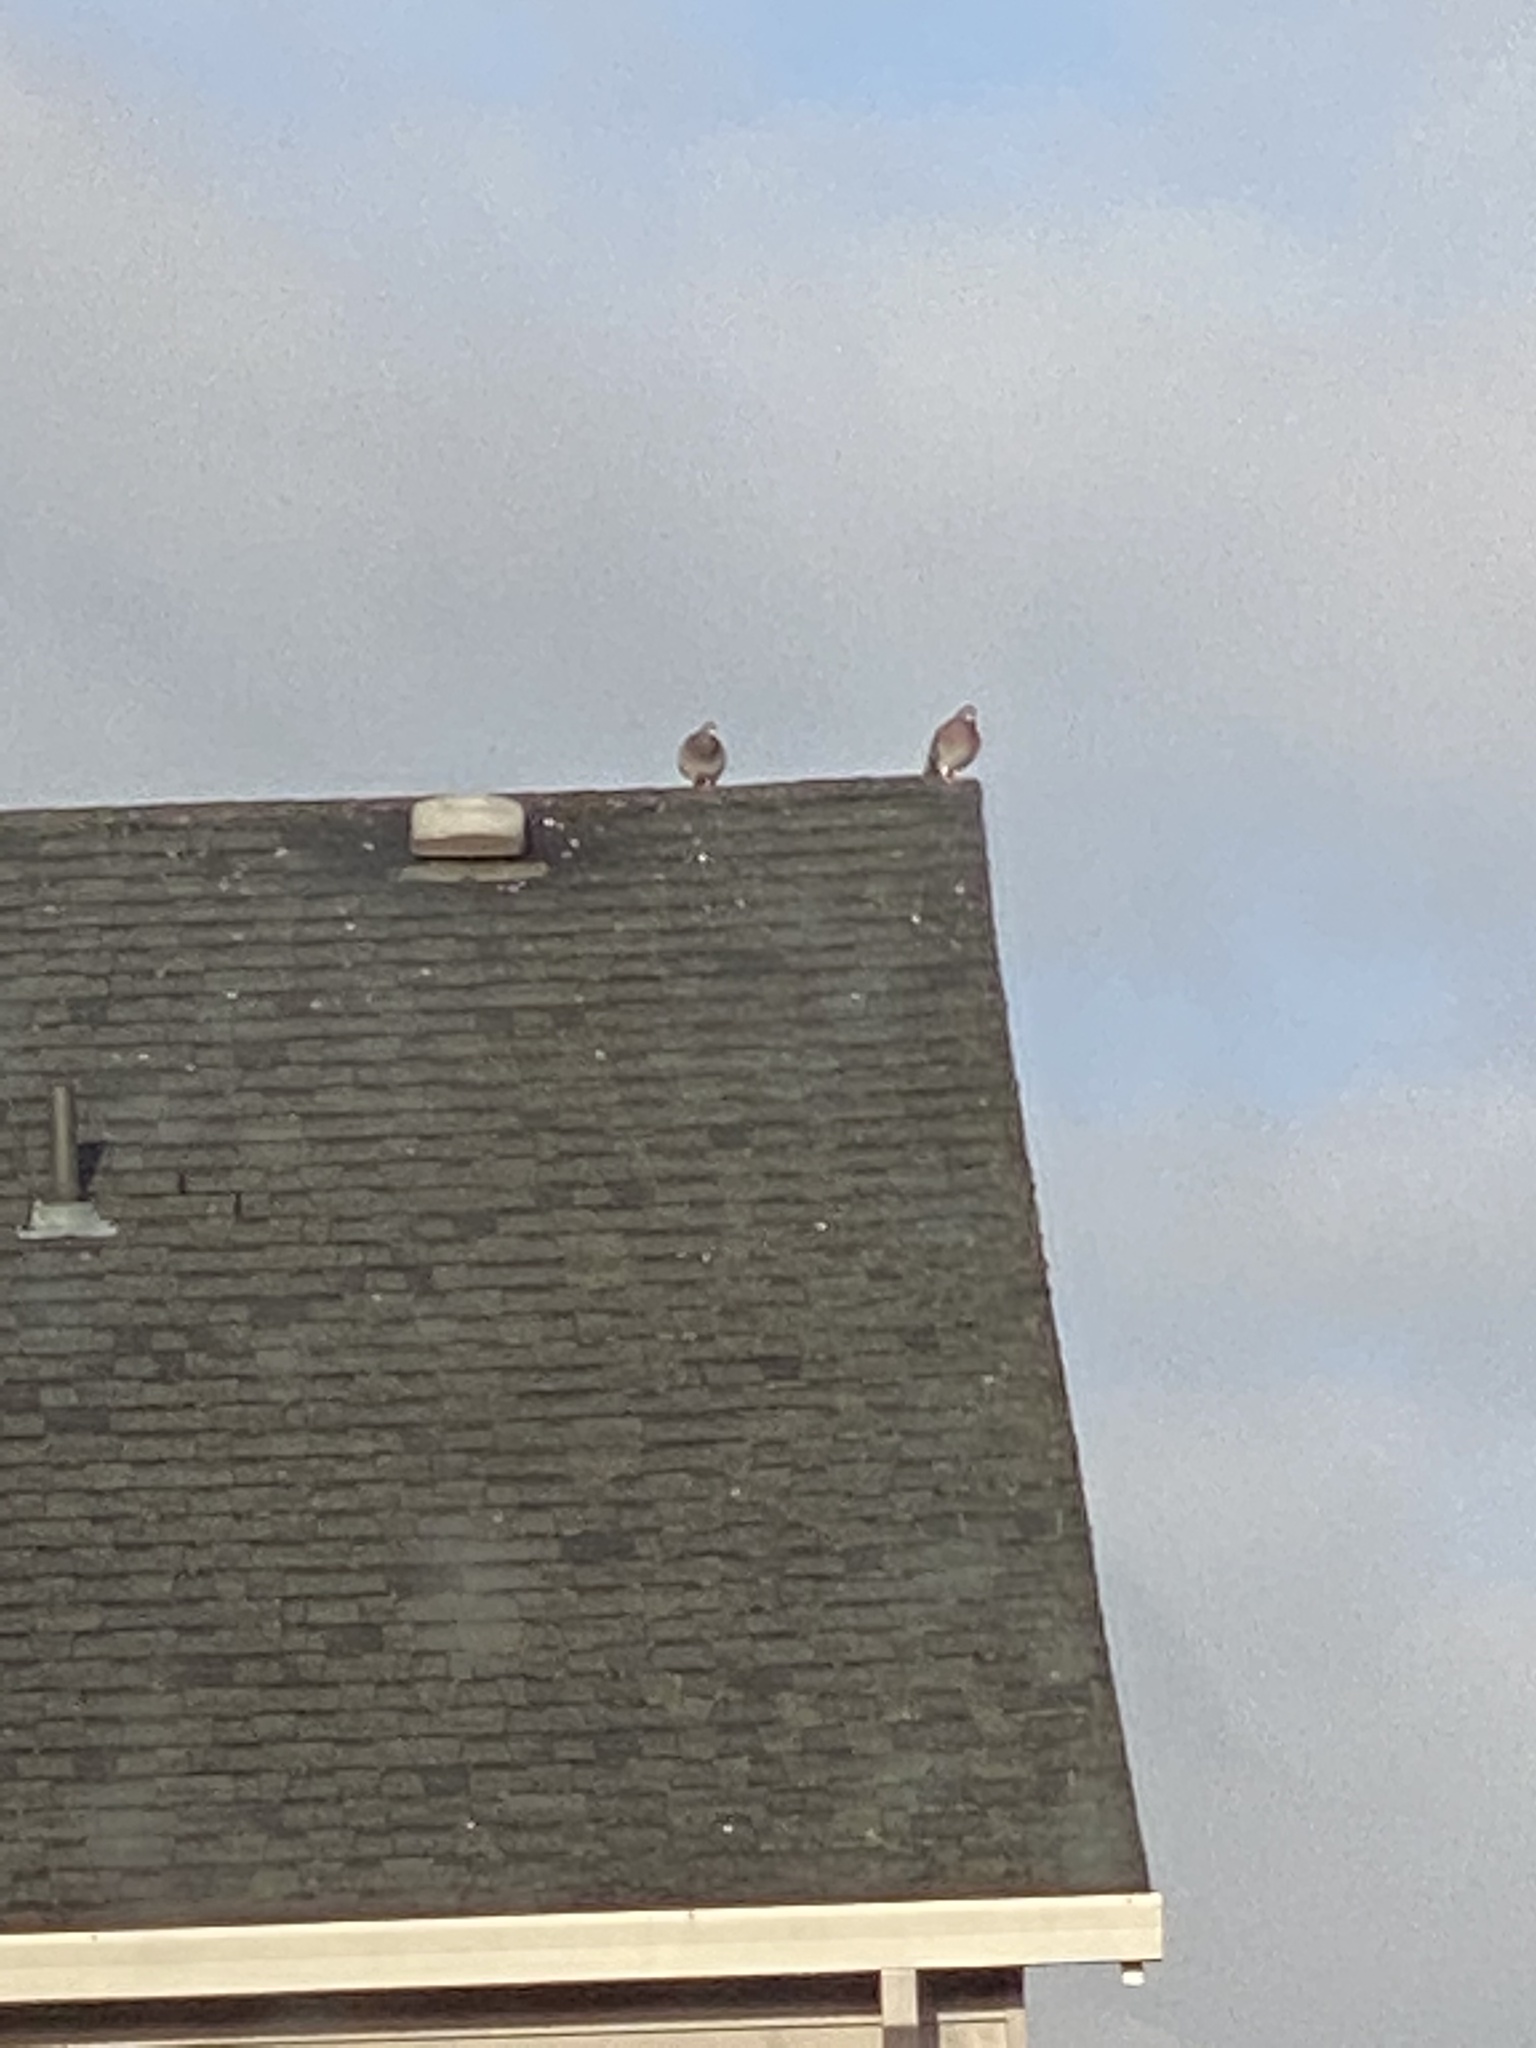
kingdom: Animalia
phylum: Chordata
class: Aves
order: Columbiformes
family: Columbidae
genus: Columba
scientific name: Columba livia
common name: Rock pigeon
